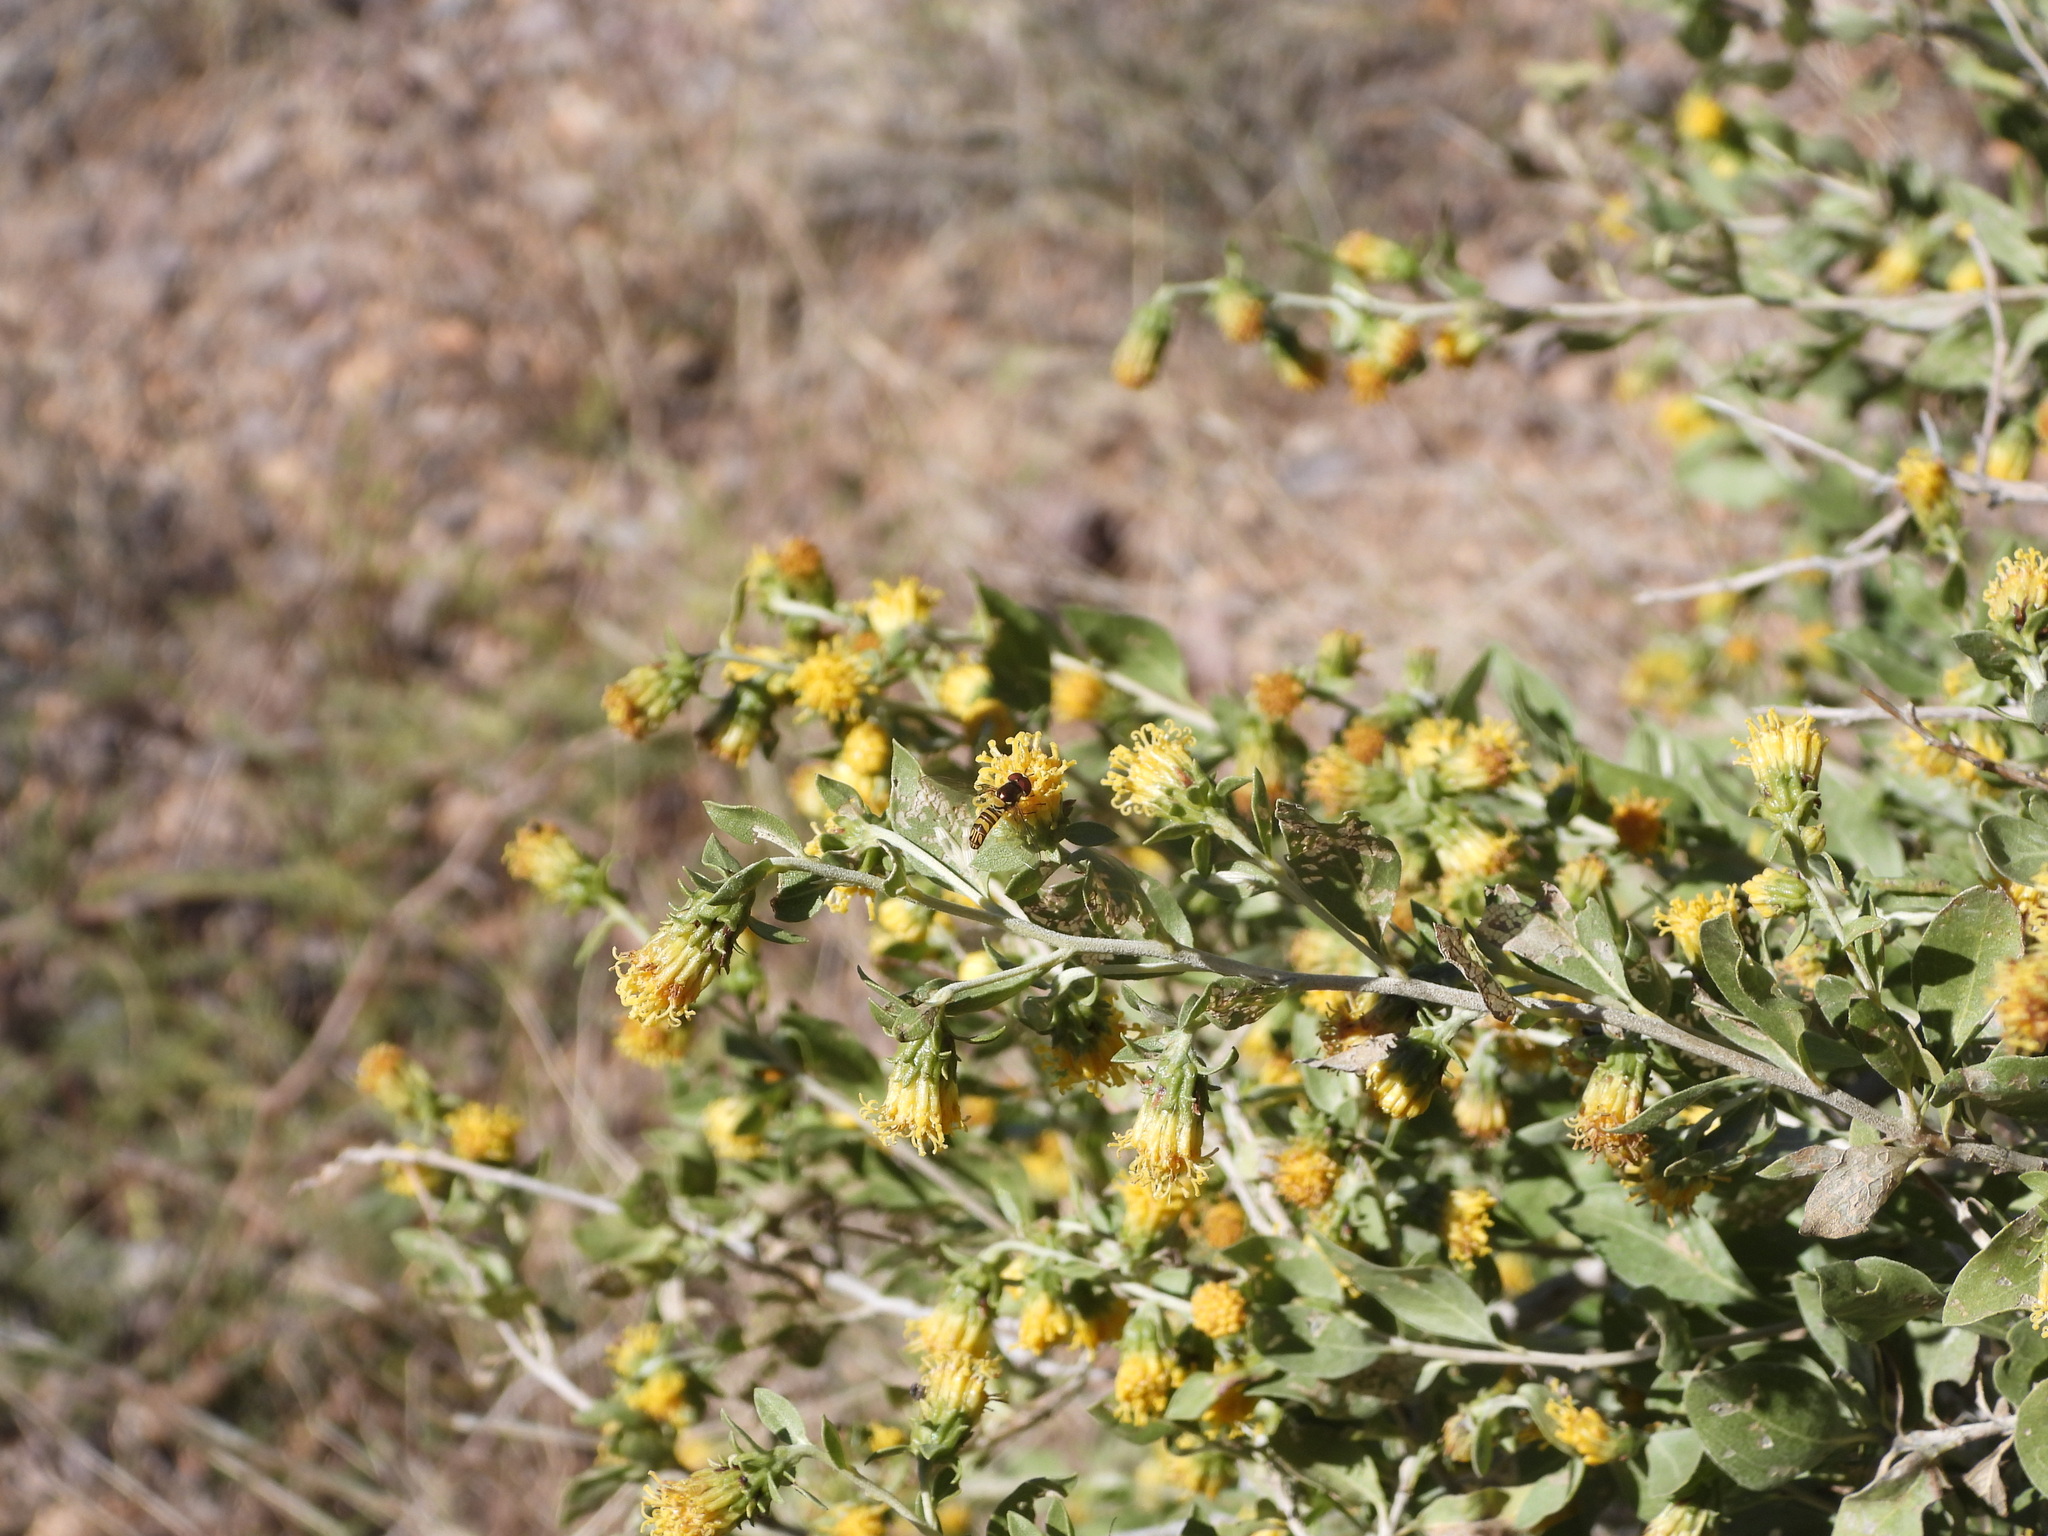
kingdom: Animalia
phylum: Arthropoda
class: Insecta
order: Diptera
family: Syrphidae
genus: Allograpta
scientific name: Allograpta obliqua
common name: Common oblique syrphid
